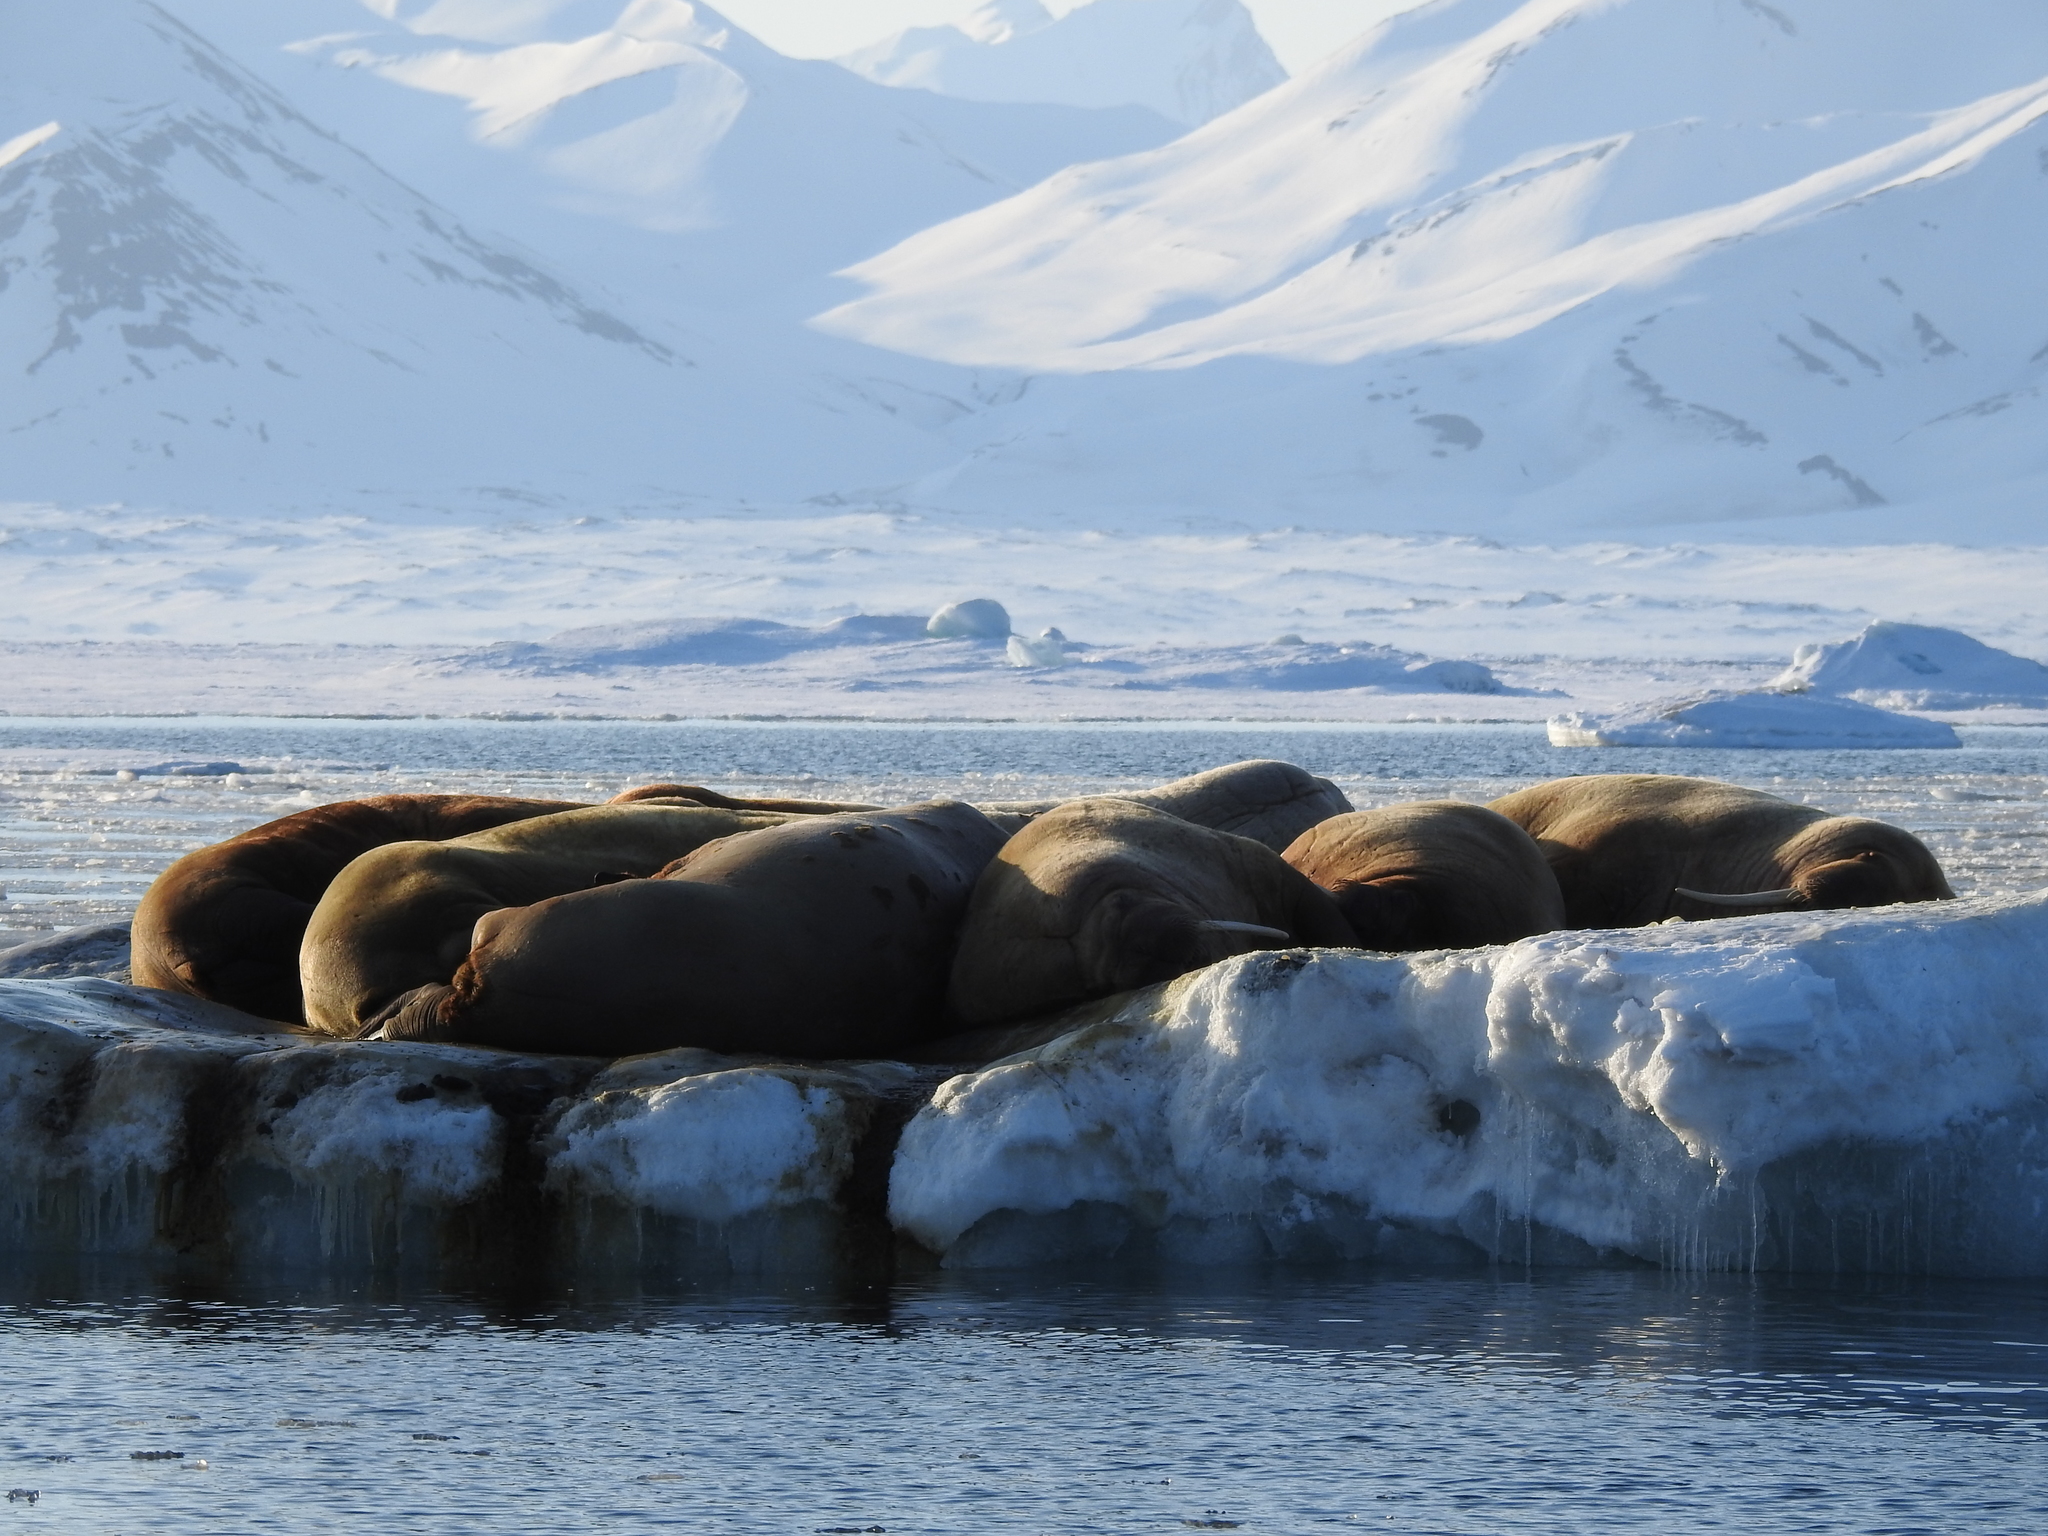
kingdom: Animalia
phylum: Chordata
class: Mammalia
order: Carnivora
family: Odobenidae
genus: Odobenus
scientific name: Odobenus rosmarus
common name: Walrus
